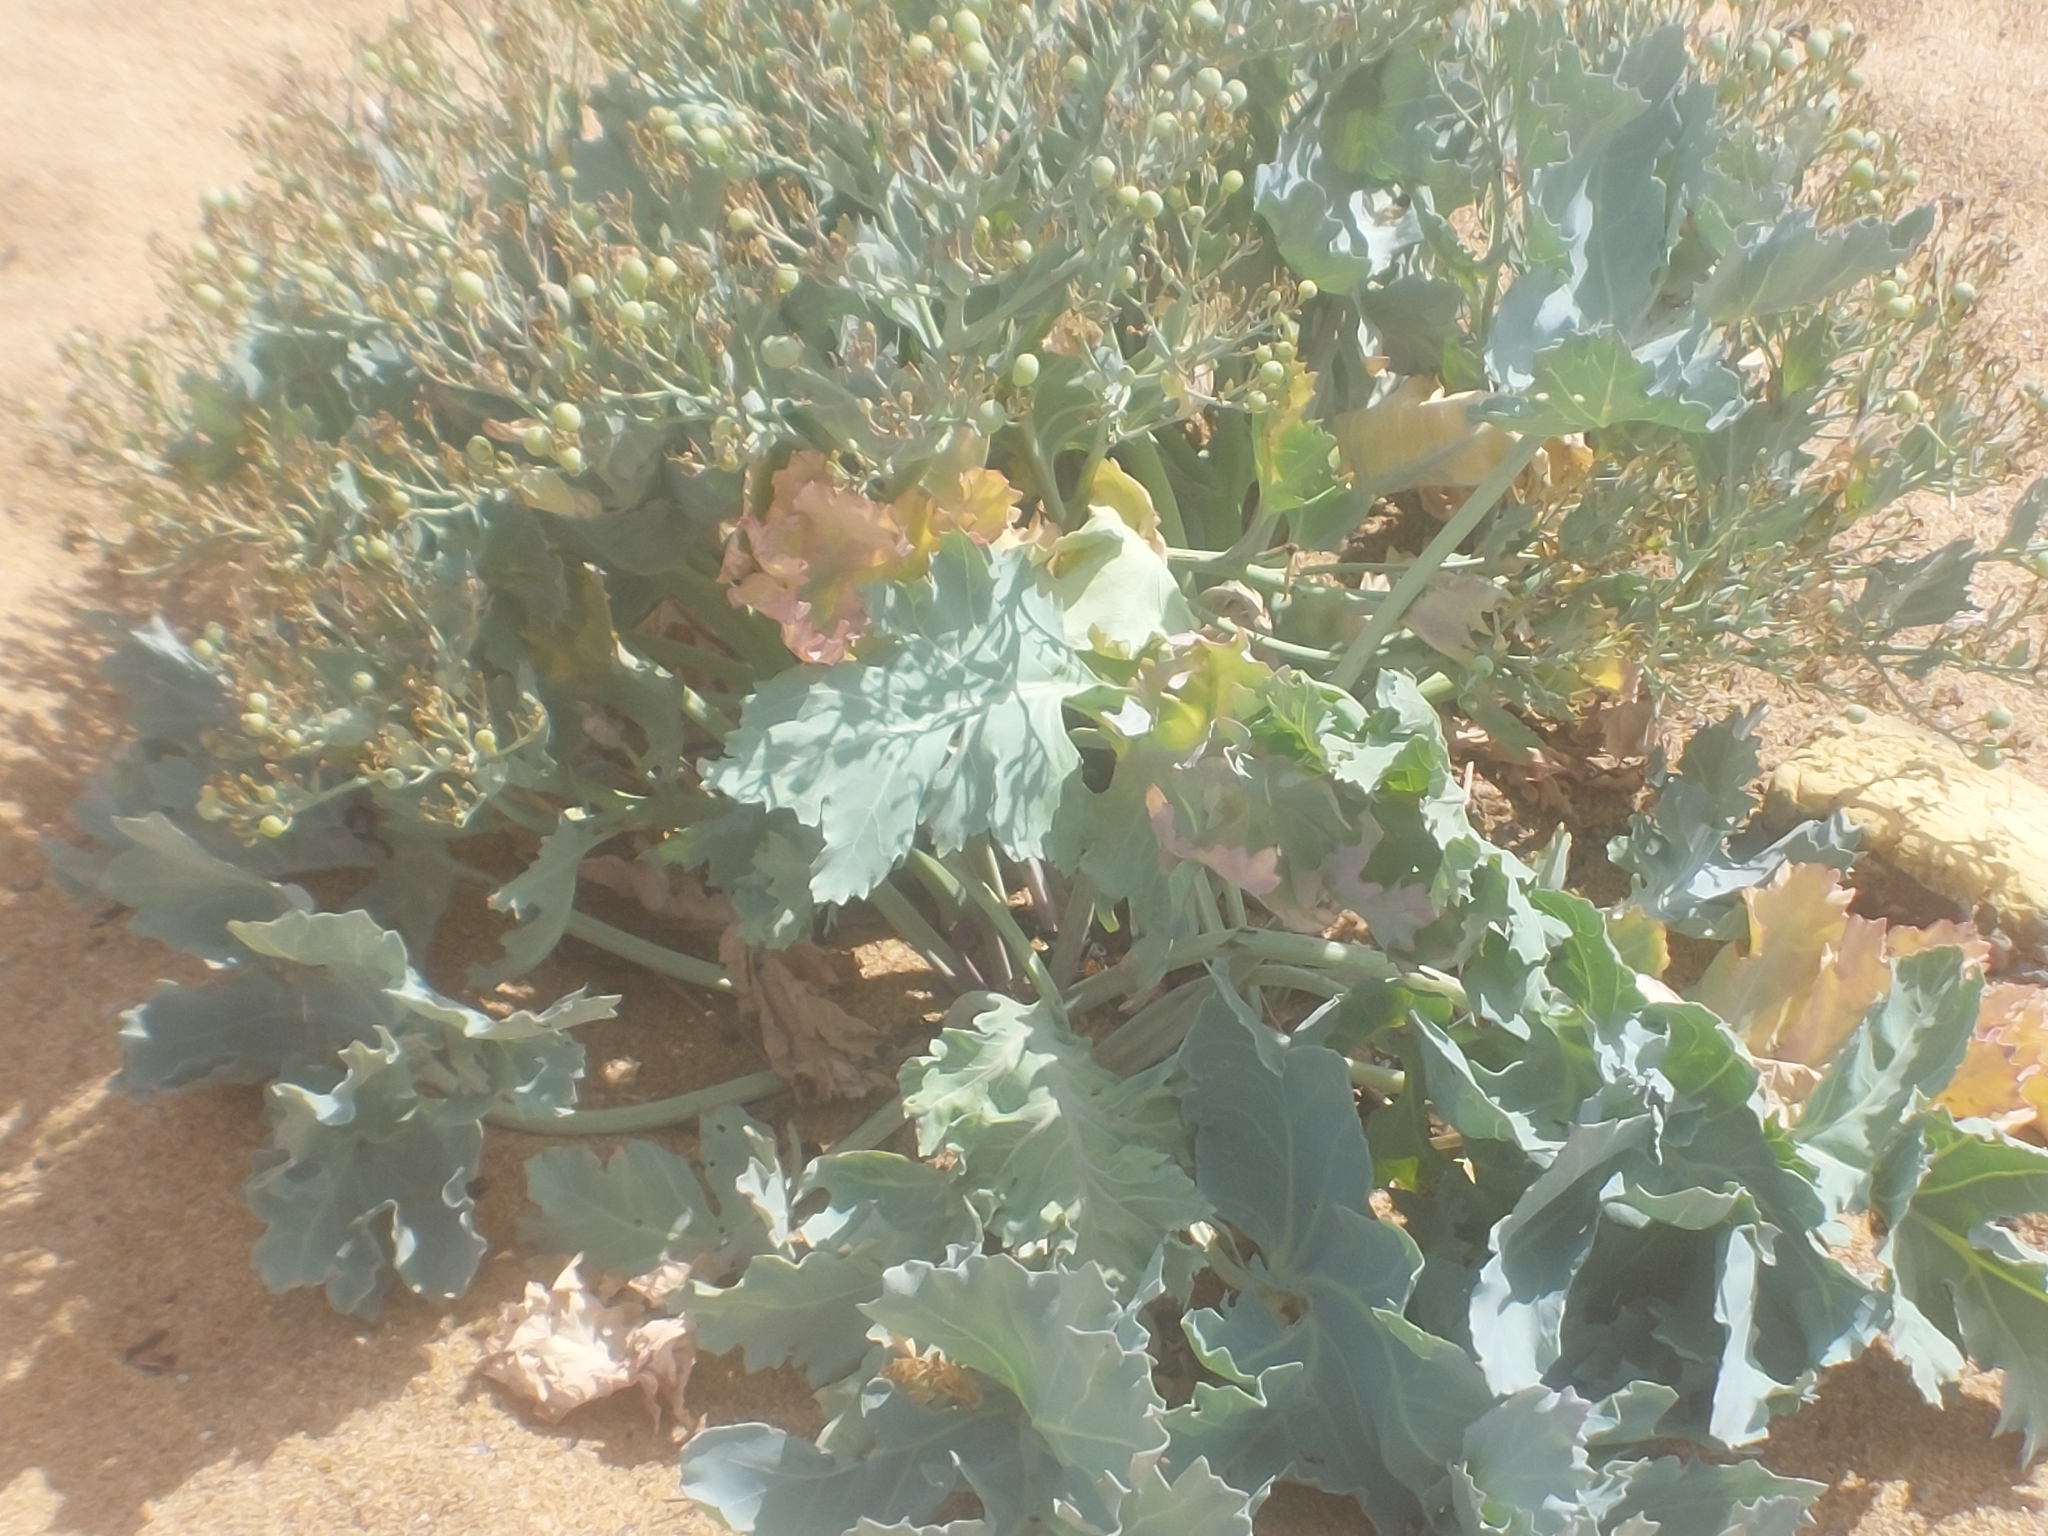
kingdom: Plantae
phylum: Tracheophyta
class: Magnoliopsida
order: Brassicales
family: Brassicaceae
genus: Crambe
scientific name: Crambe maritima
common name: Sea-kale
